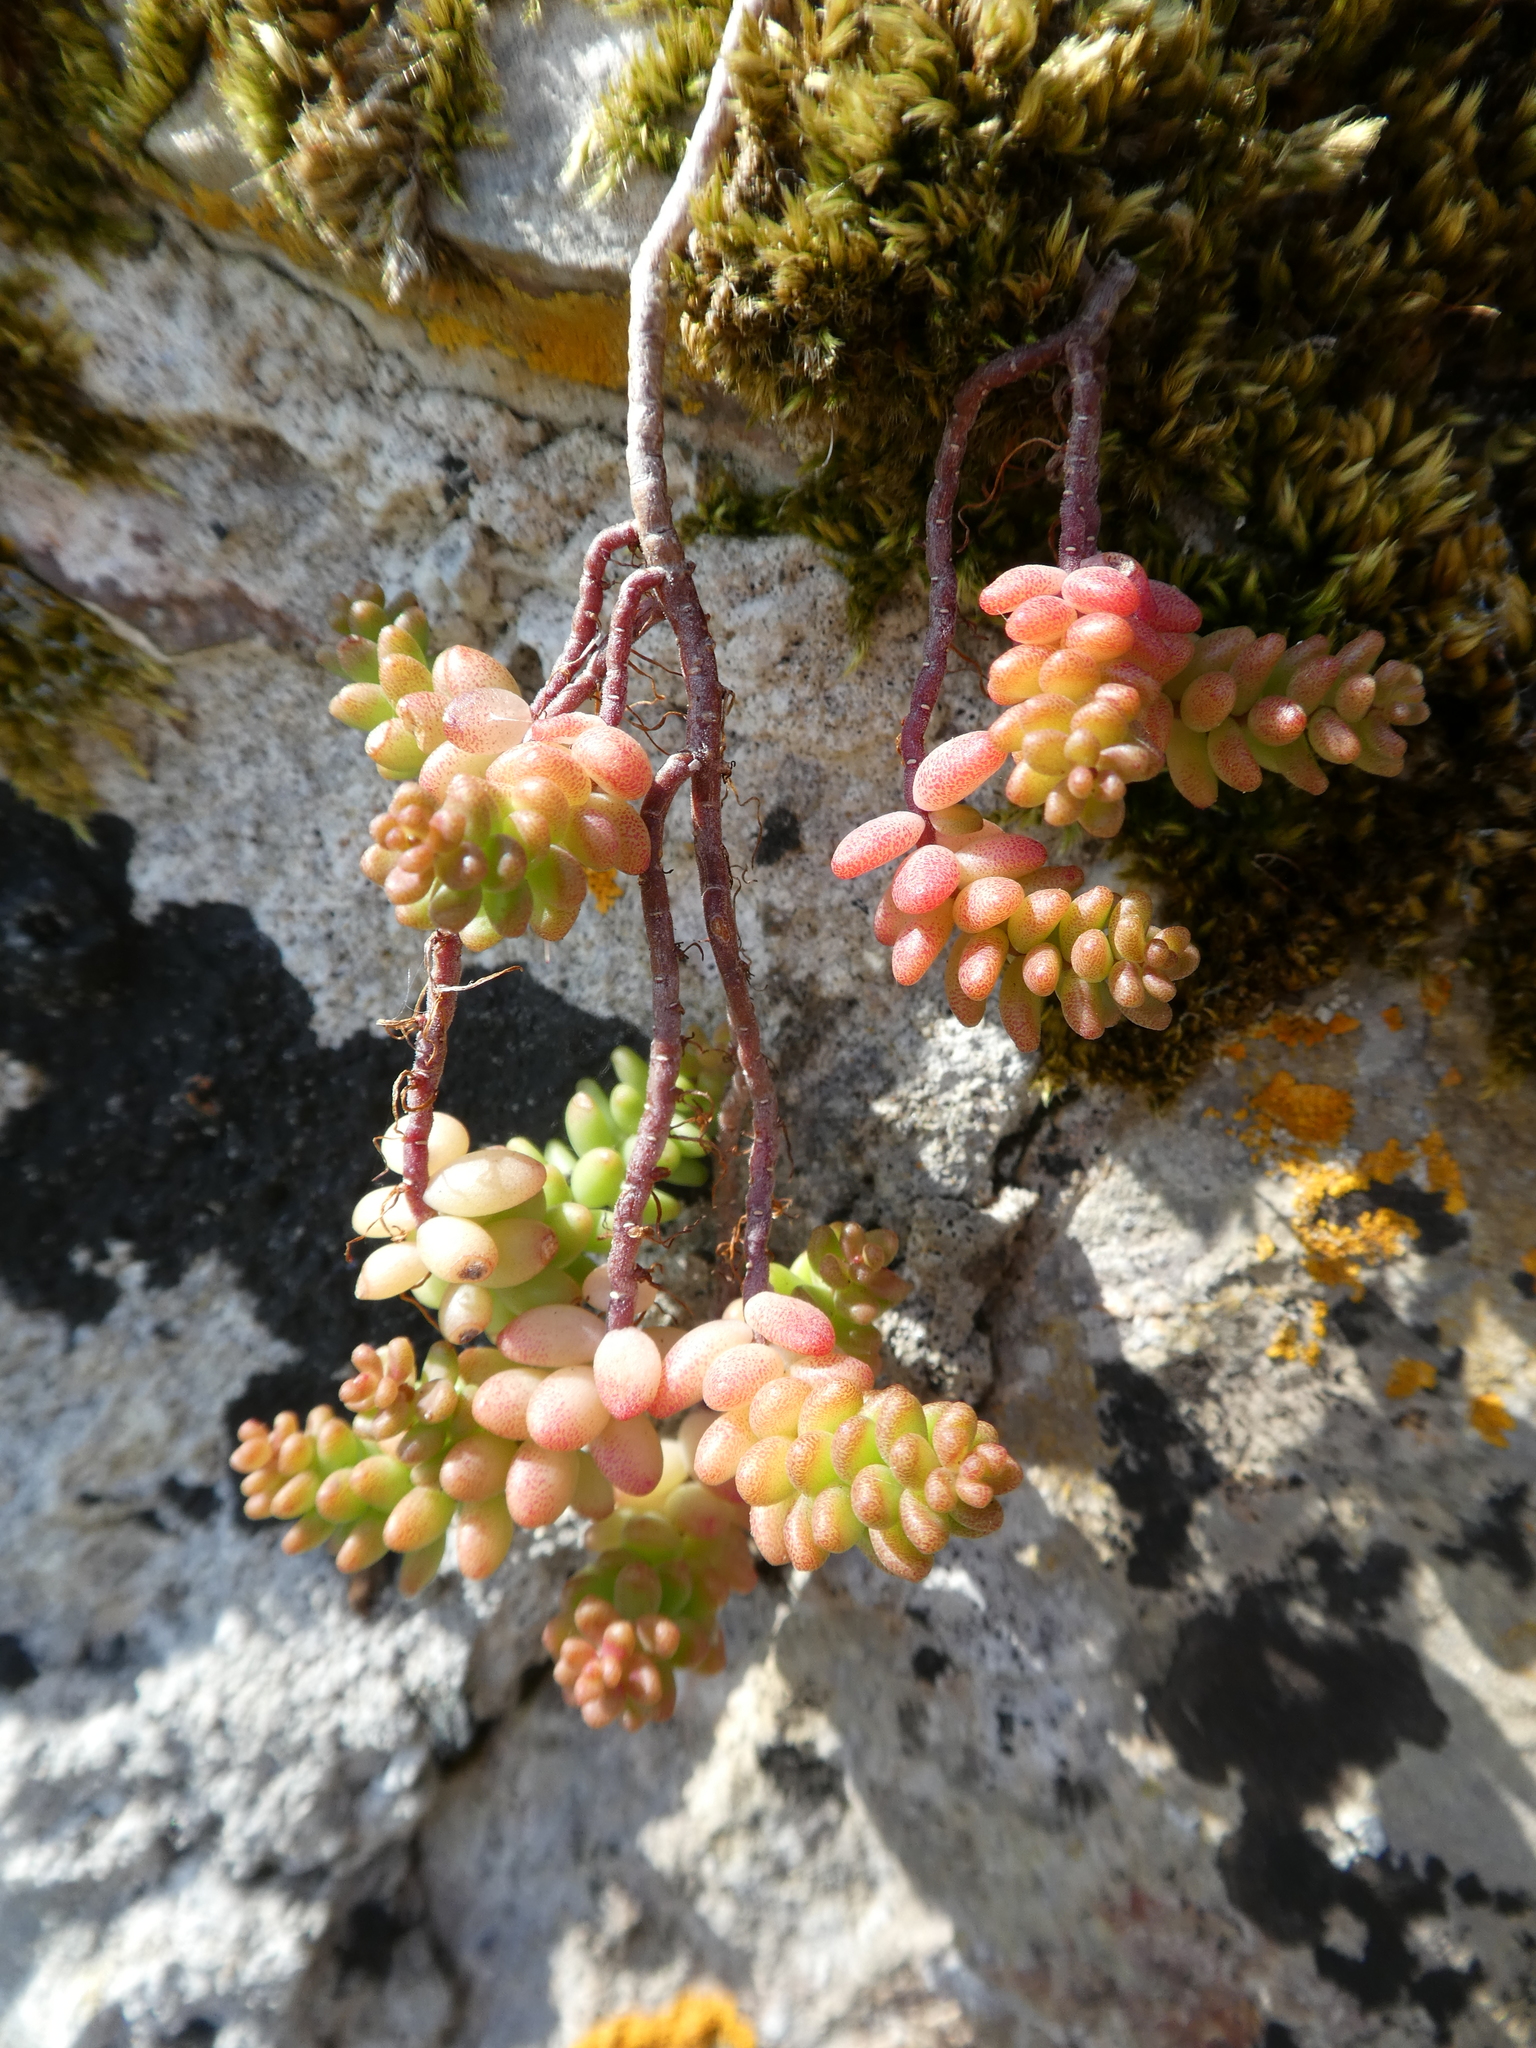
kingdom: Plantae
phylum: Tracheophyta
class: Magnoliopsida
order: Saxifragales
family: Crassulaceae
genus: Sedum
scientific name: Sedum album
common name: White stonecrop
